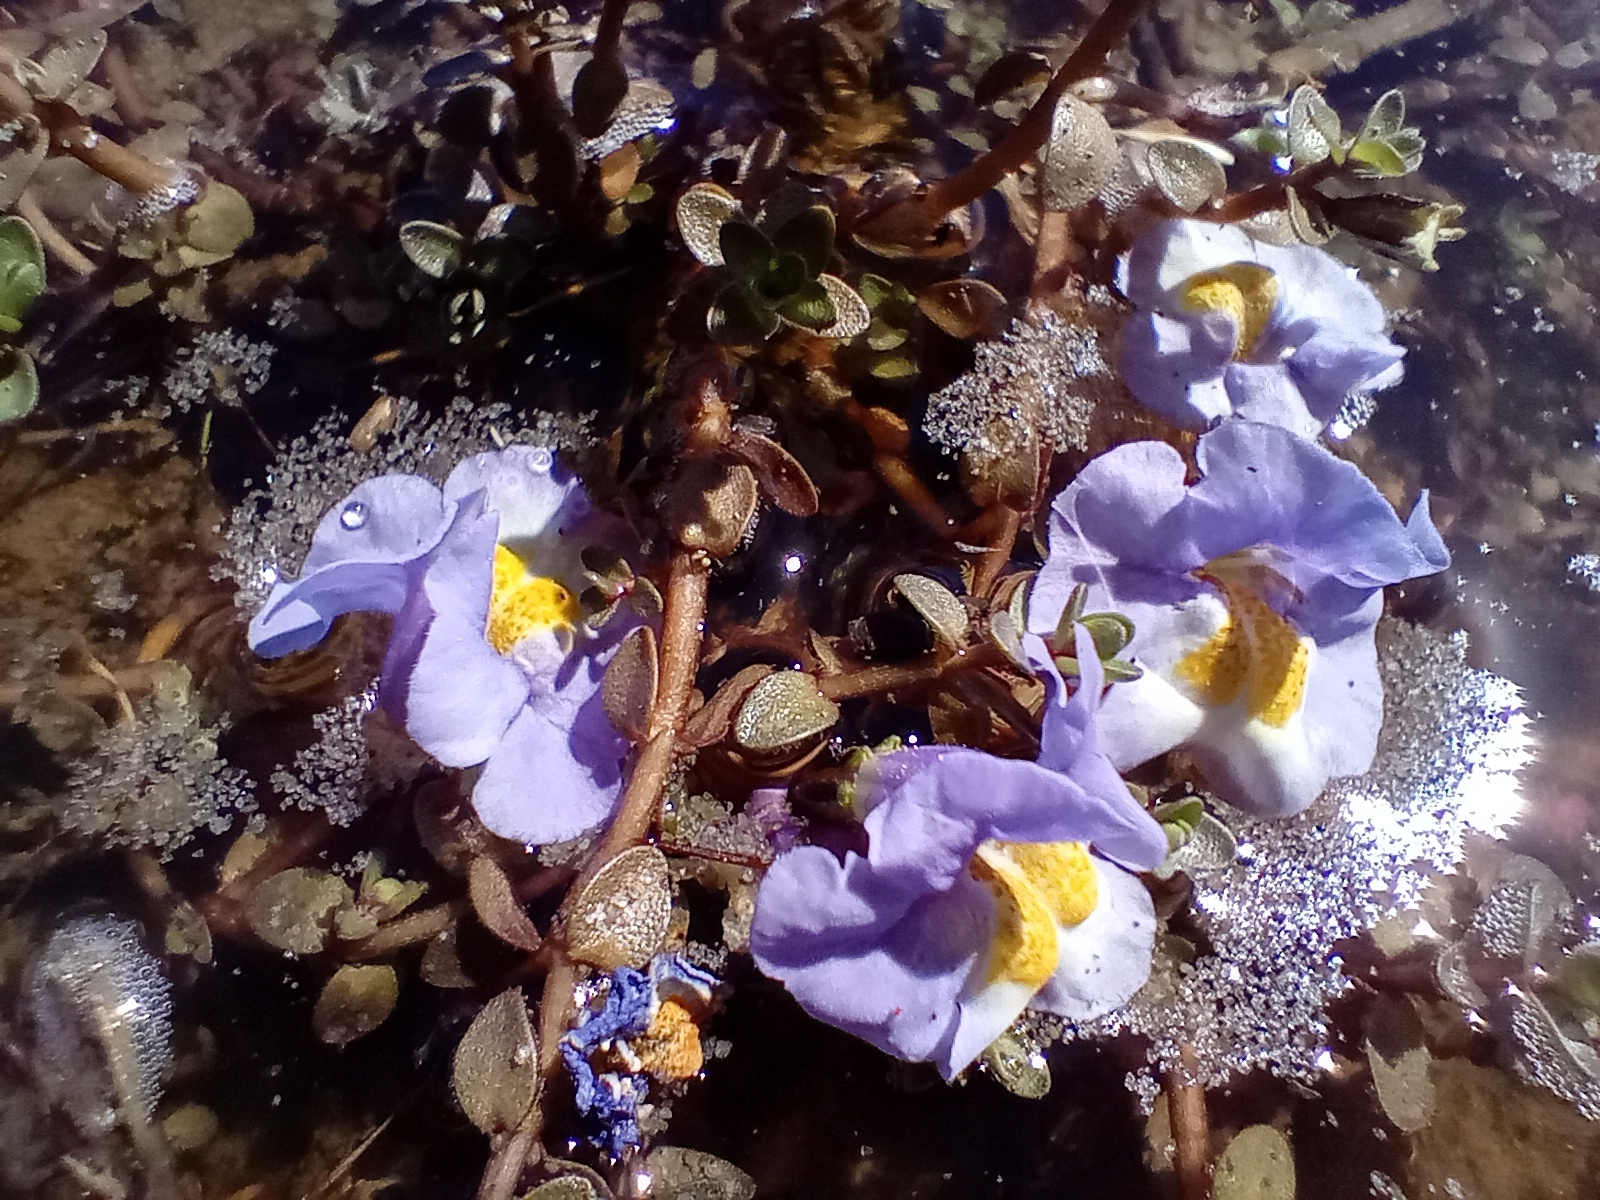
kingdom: Plantae
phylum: Tracheophyta
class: Magnoliopsida
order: Lamiales
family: Phrymaceae
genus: Thyridia
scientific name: Thyridia repens
